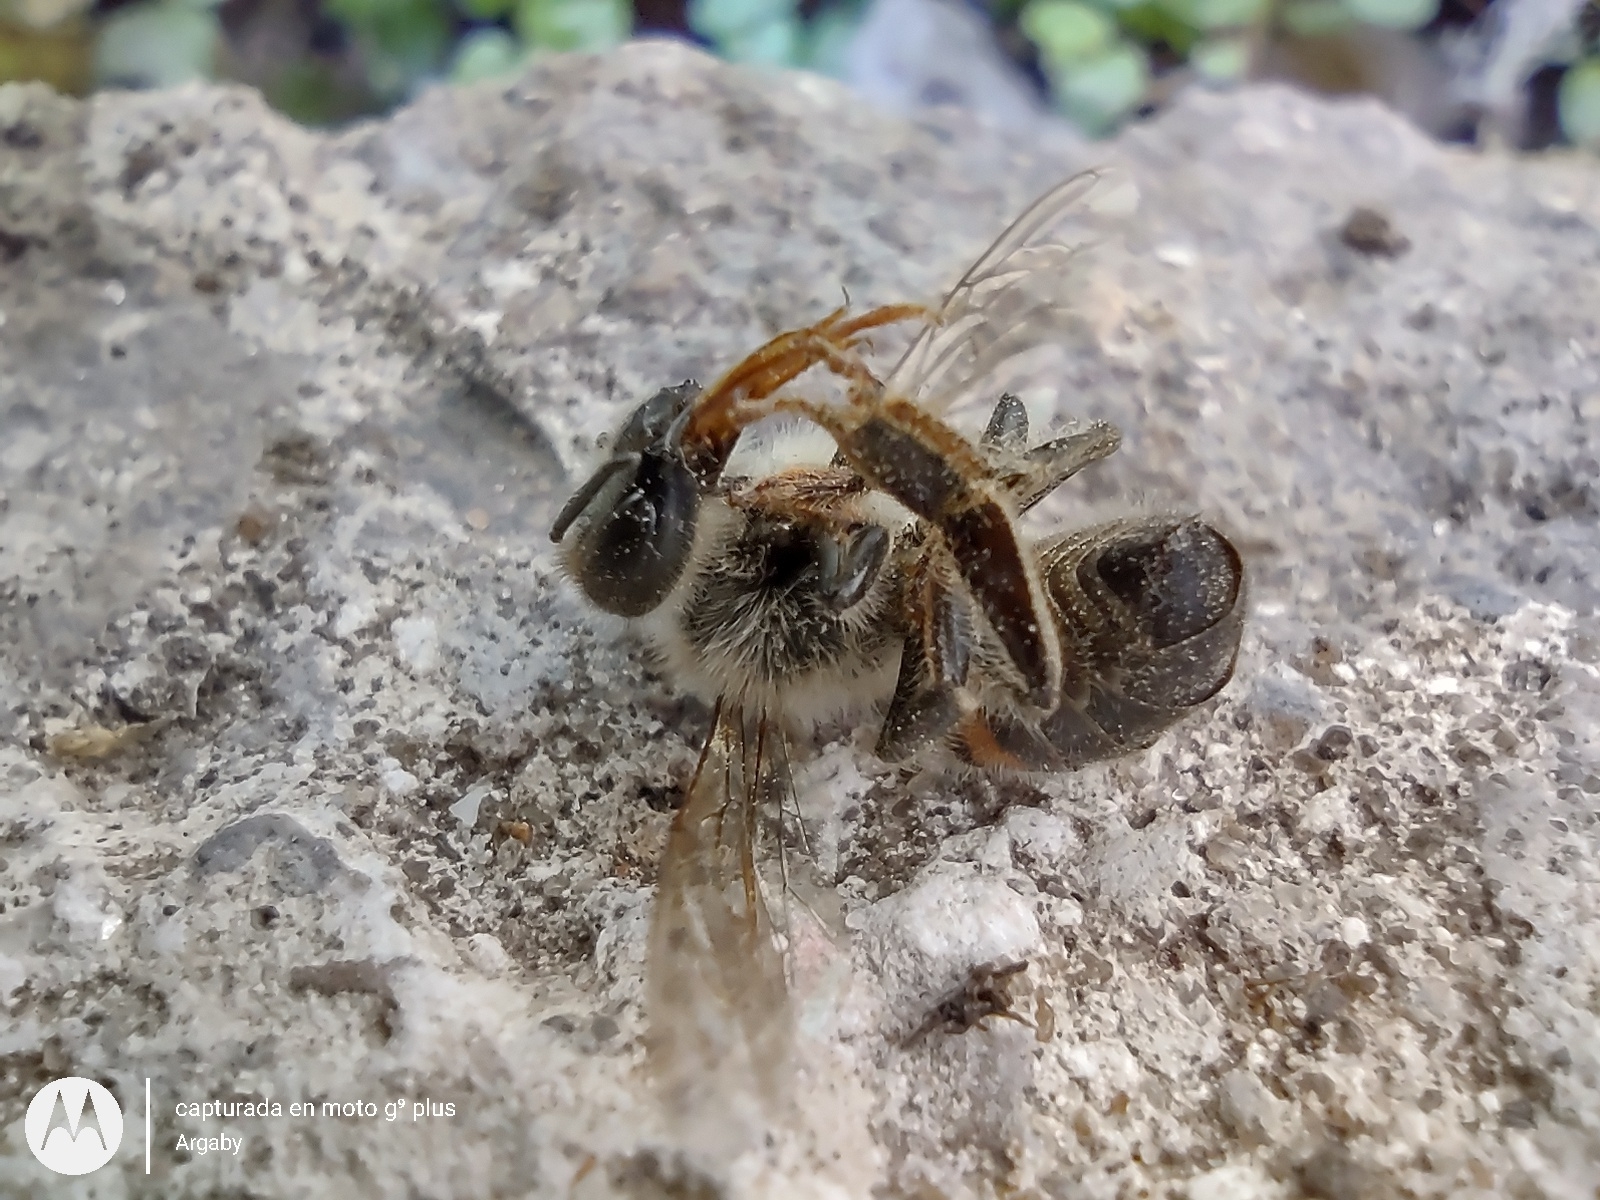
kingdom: Animalia
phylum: Arthropoda
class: Insecta
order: Hymenoptera
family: Apidae
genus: Apis
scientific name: Apis mellifera
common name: Honey bee
